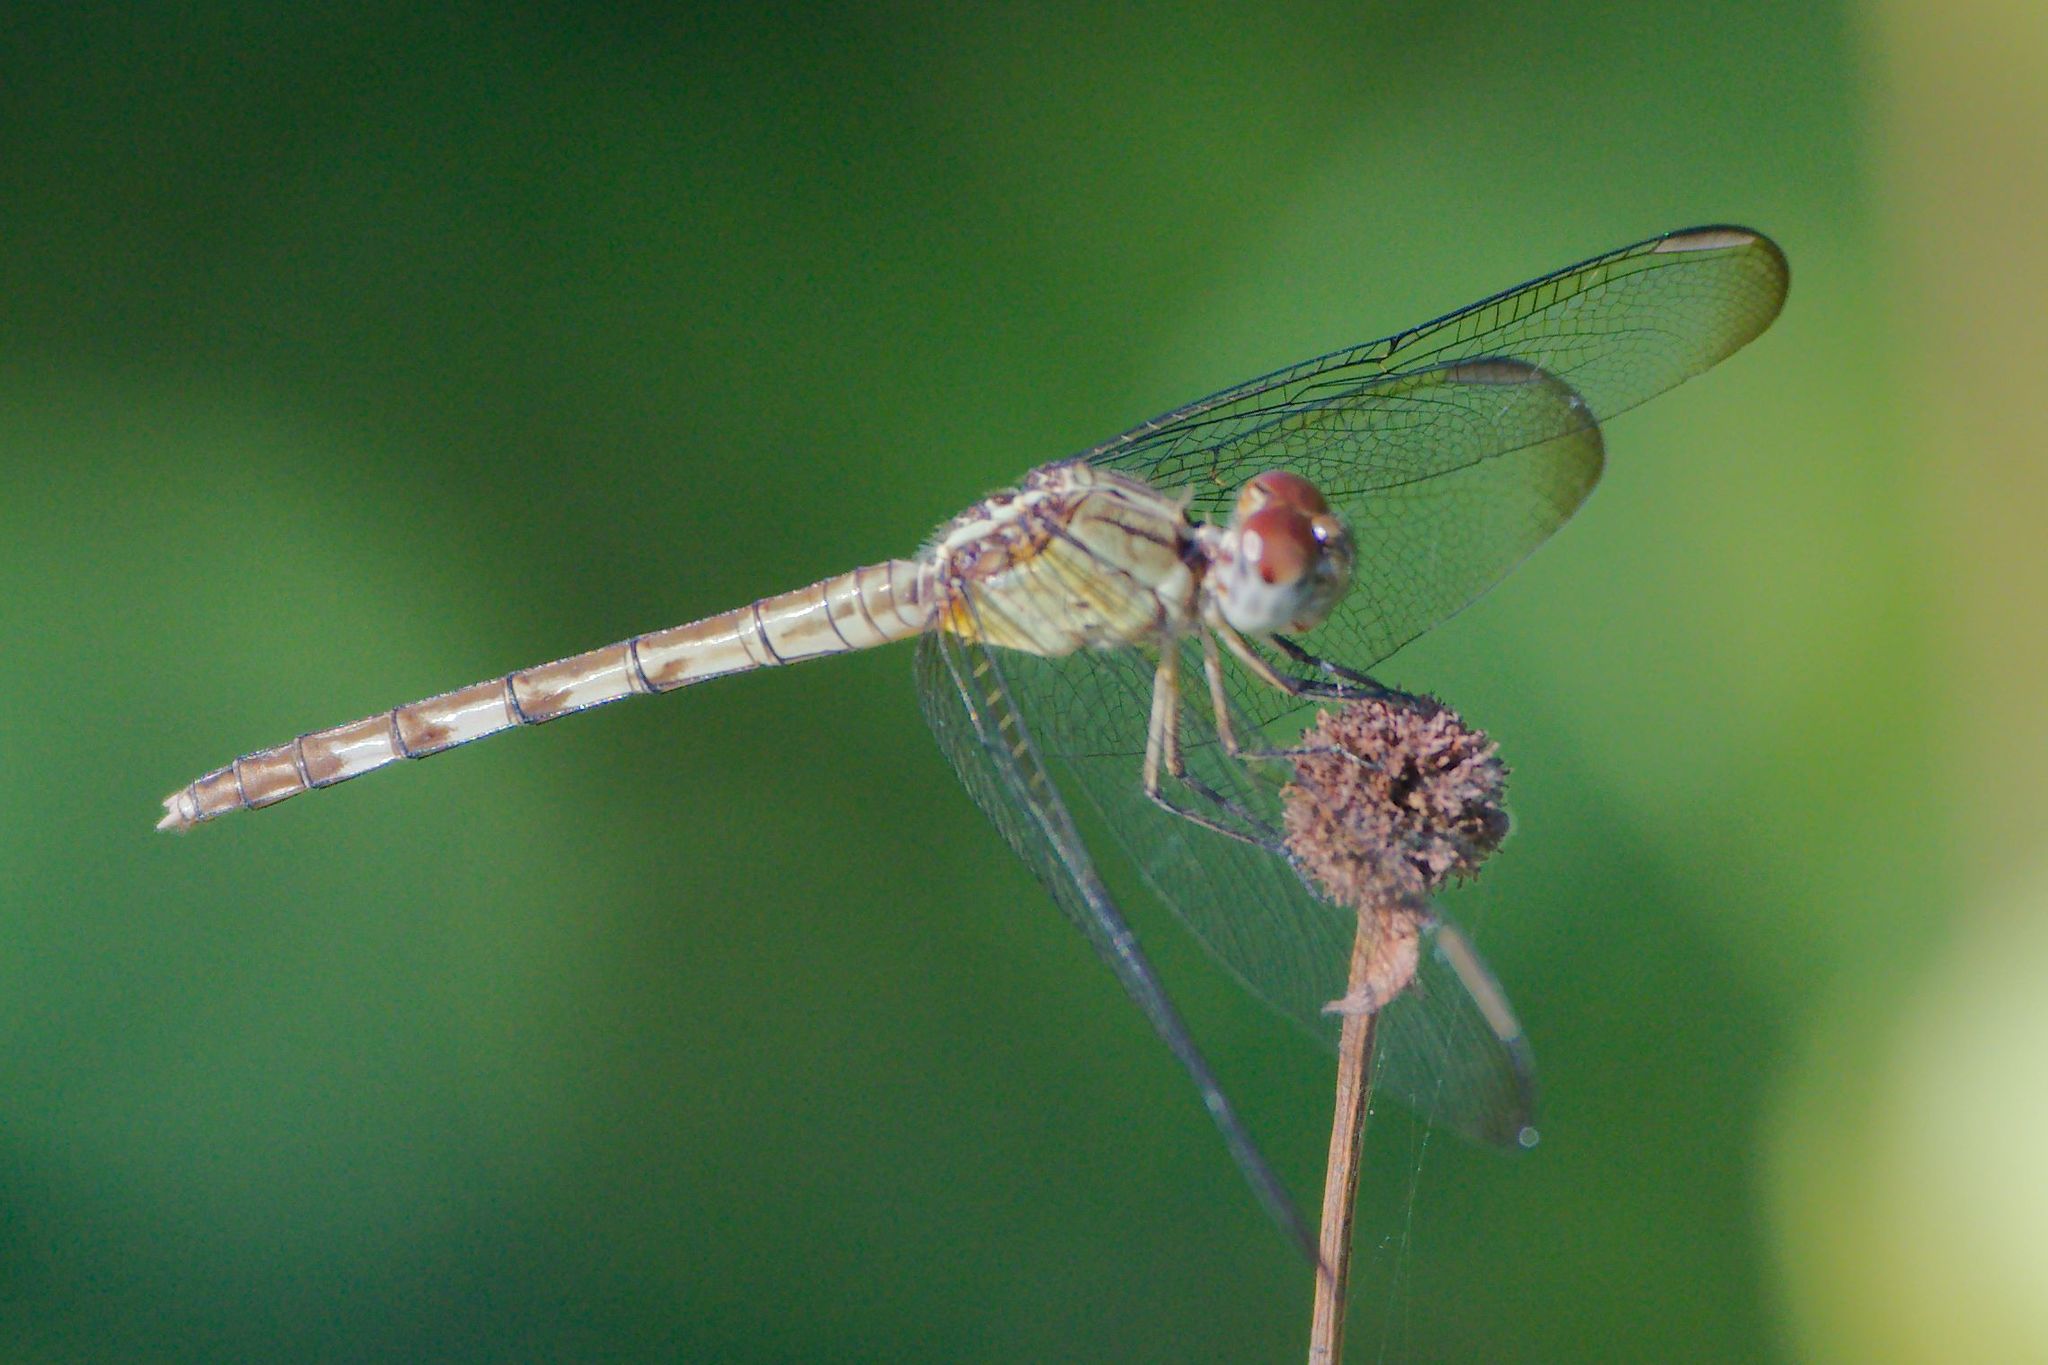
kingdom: Animalia
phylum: Arthropoda
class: Insecta
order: Odonata
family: Libellulidae
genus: Erythrodiplax
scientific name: Erythrodiplax umbrata
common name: Band-winged dragonlet
